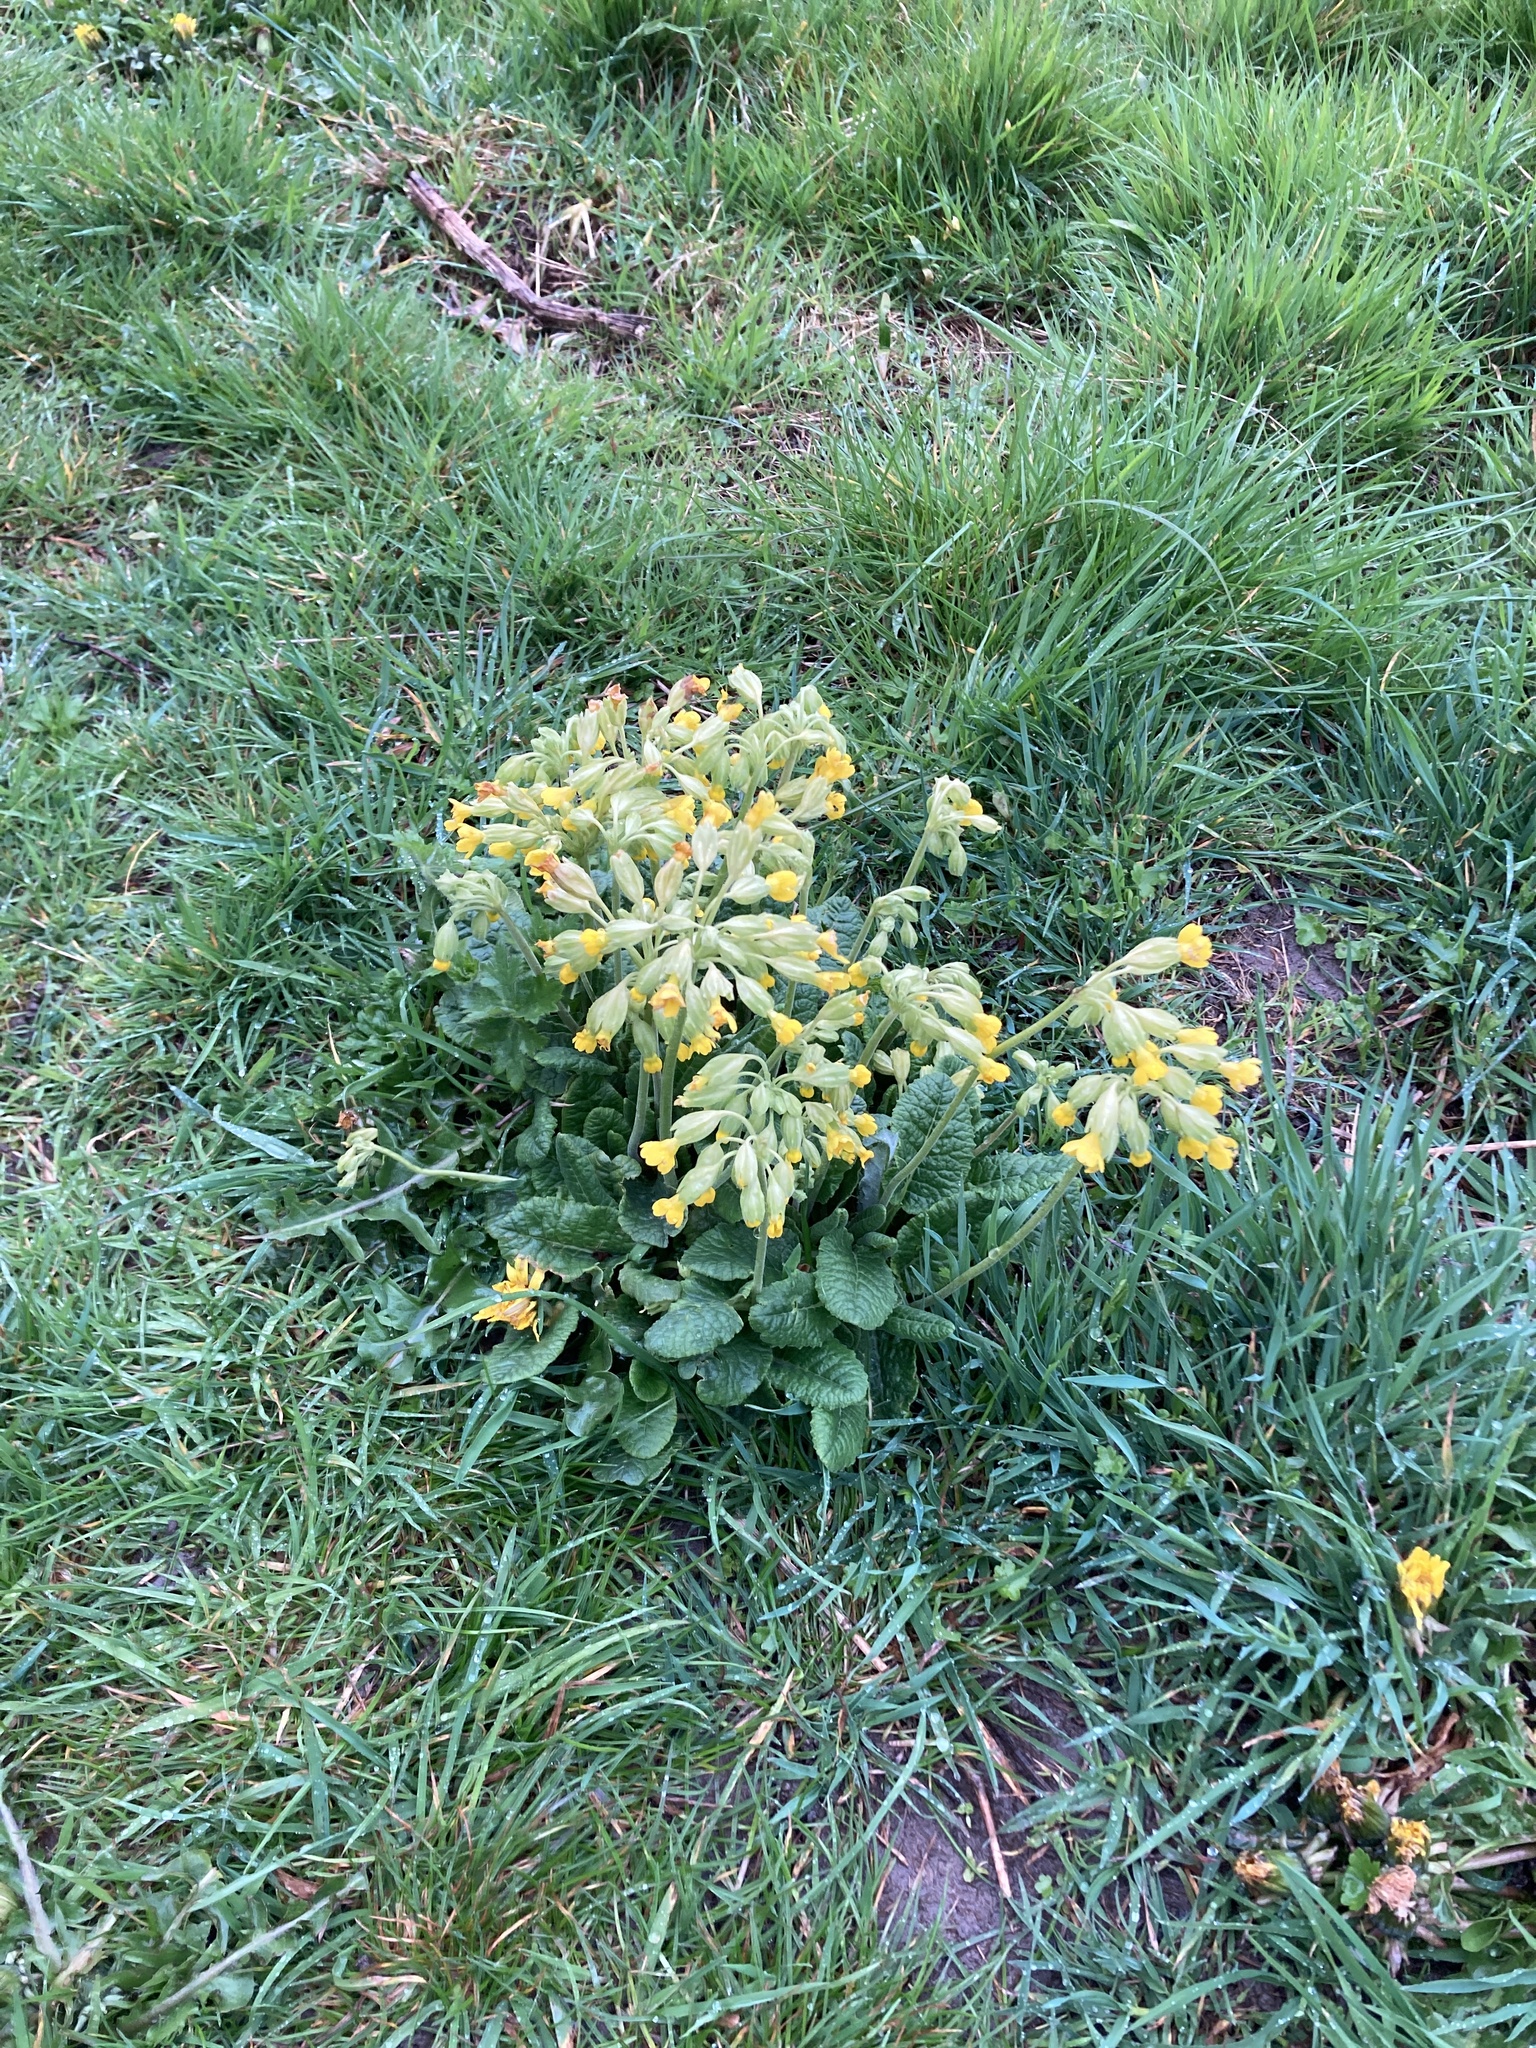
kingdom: Plantae
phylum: Tracheophyta
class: Magnoliopsida
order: Ericales
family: Primulaceae
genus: Primula
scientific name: Primula veris
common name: Cowslip
